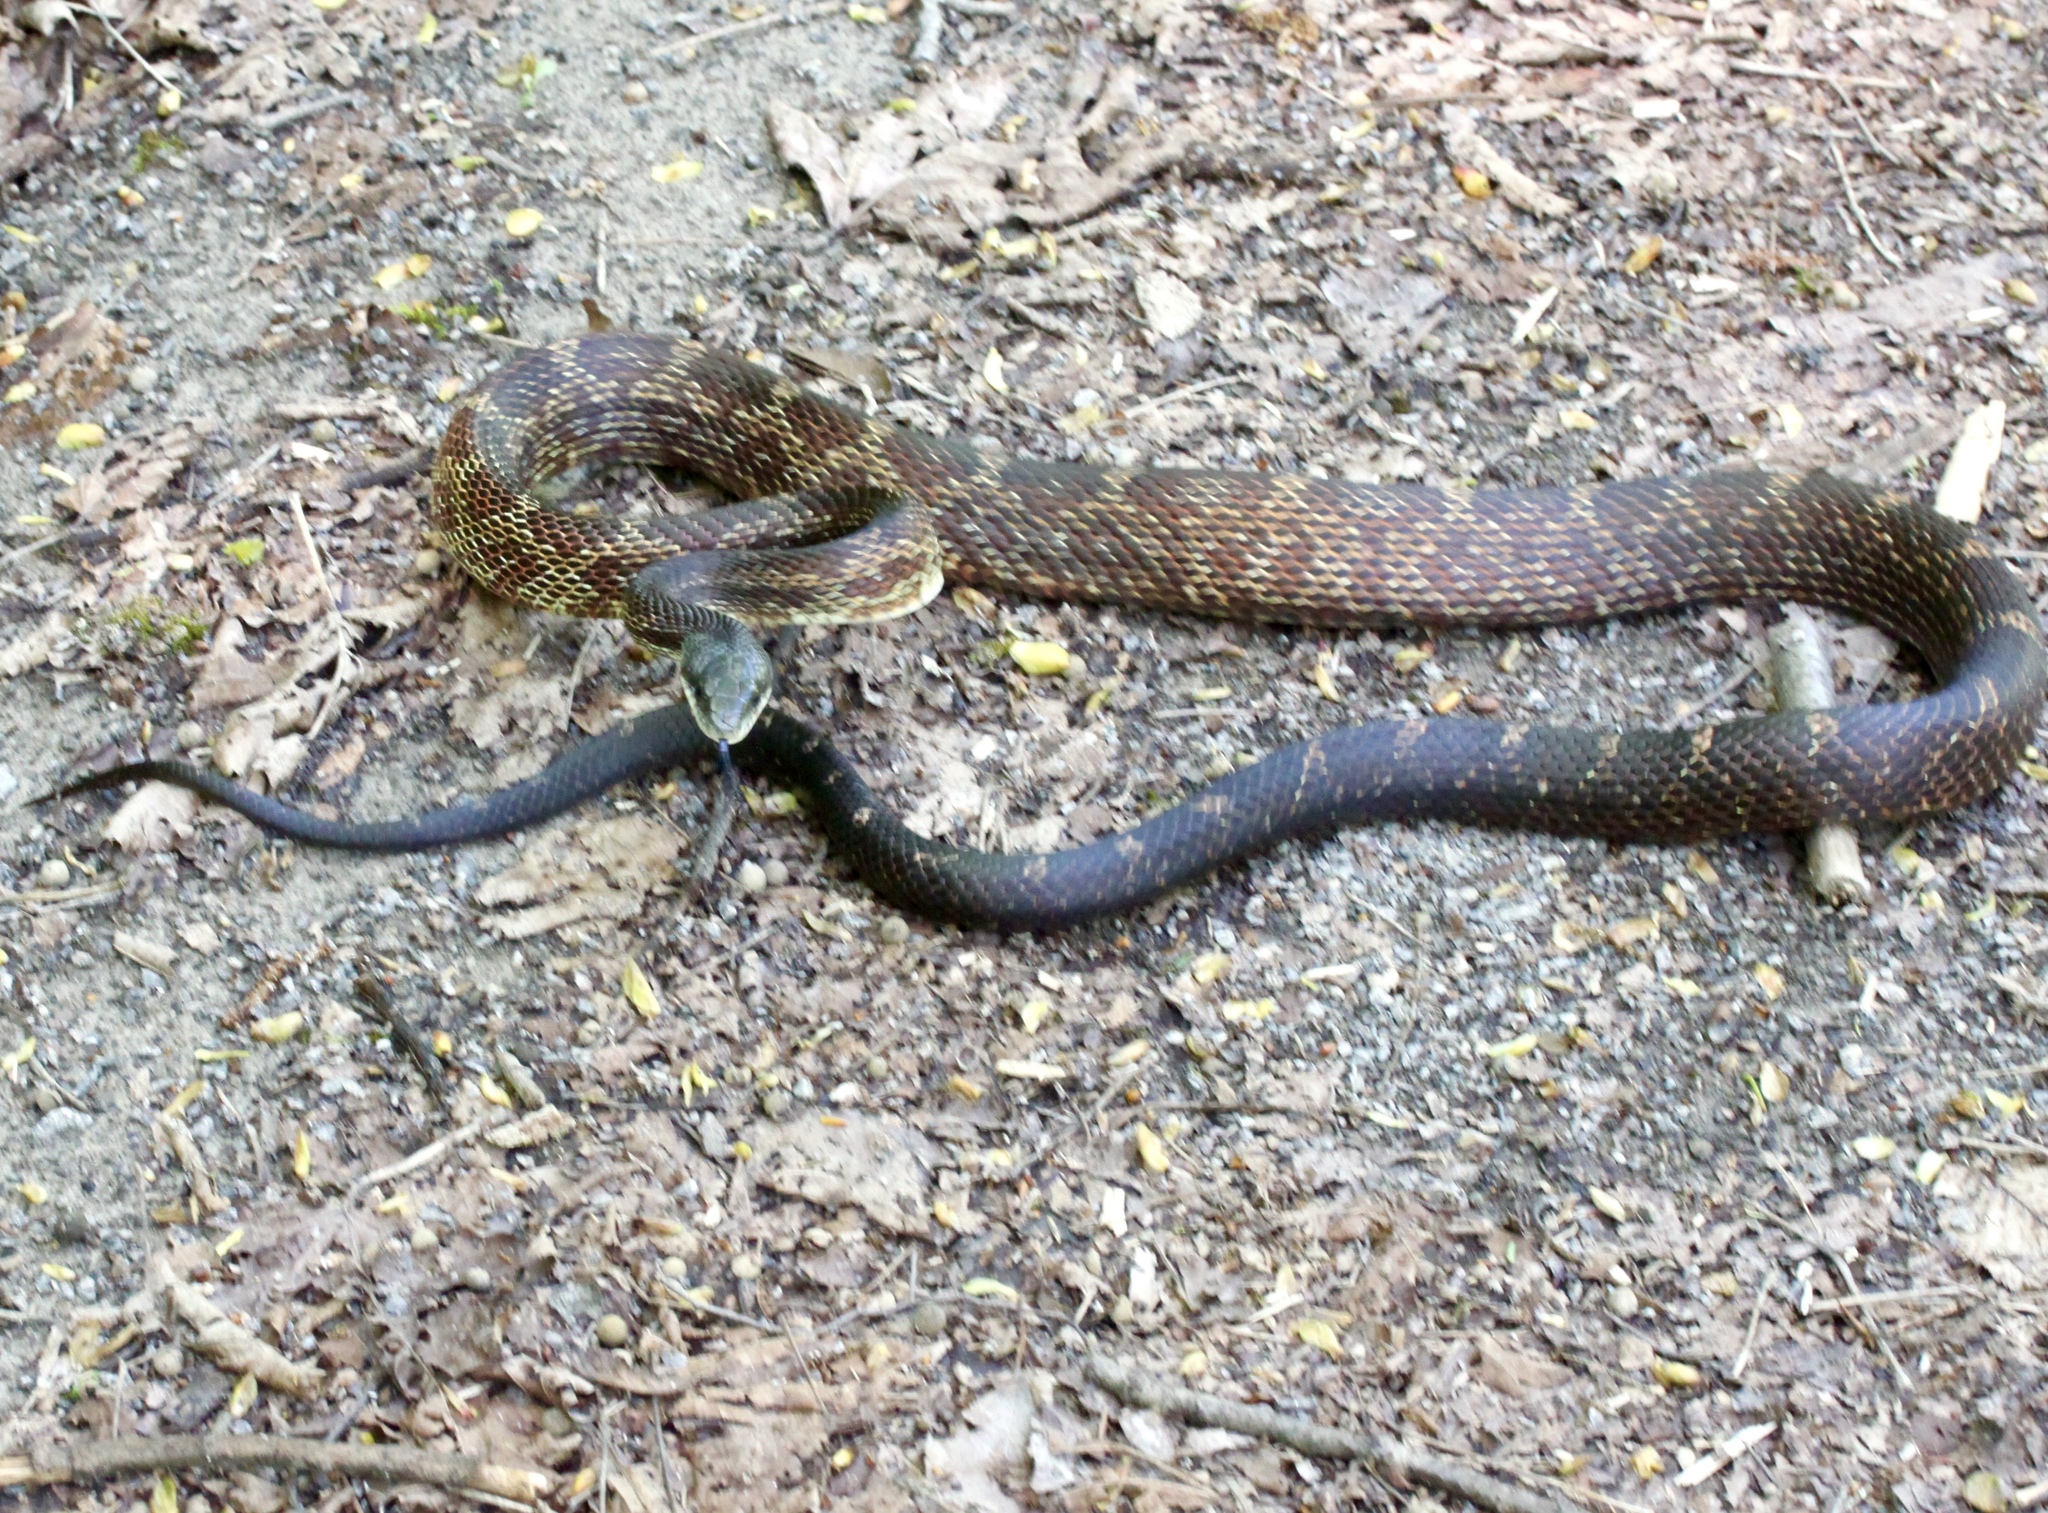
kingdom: Animalia
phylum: Chordata
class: Squamata
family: Colubridae
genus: Pantherophis
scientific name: Pantherophis
